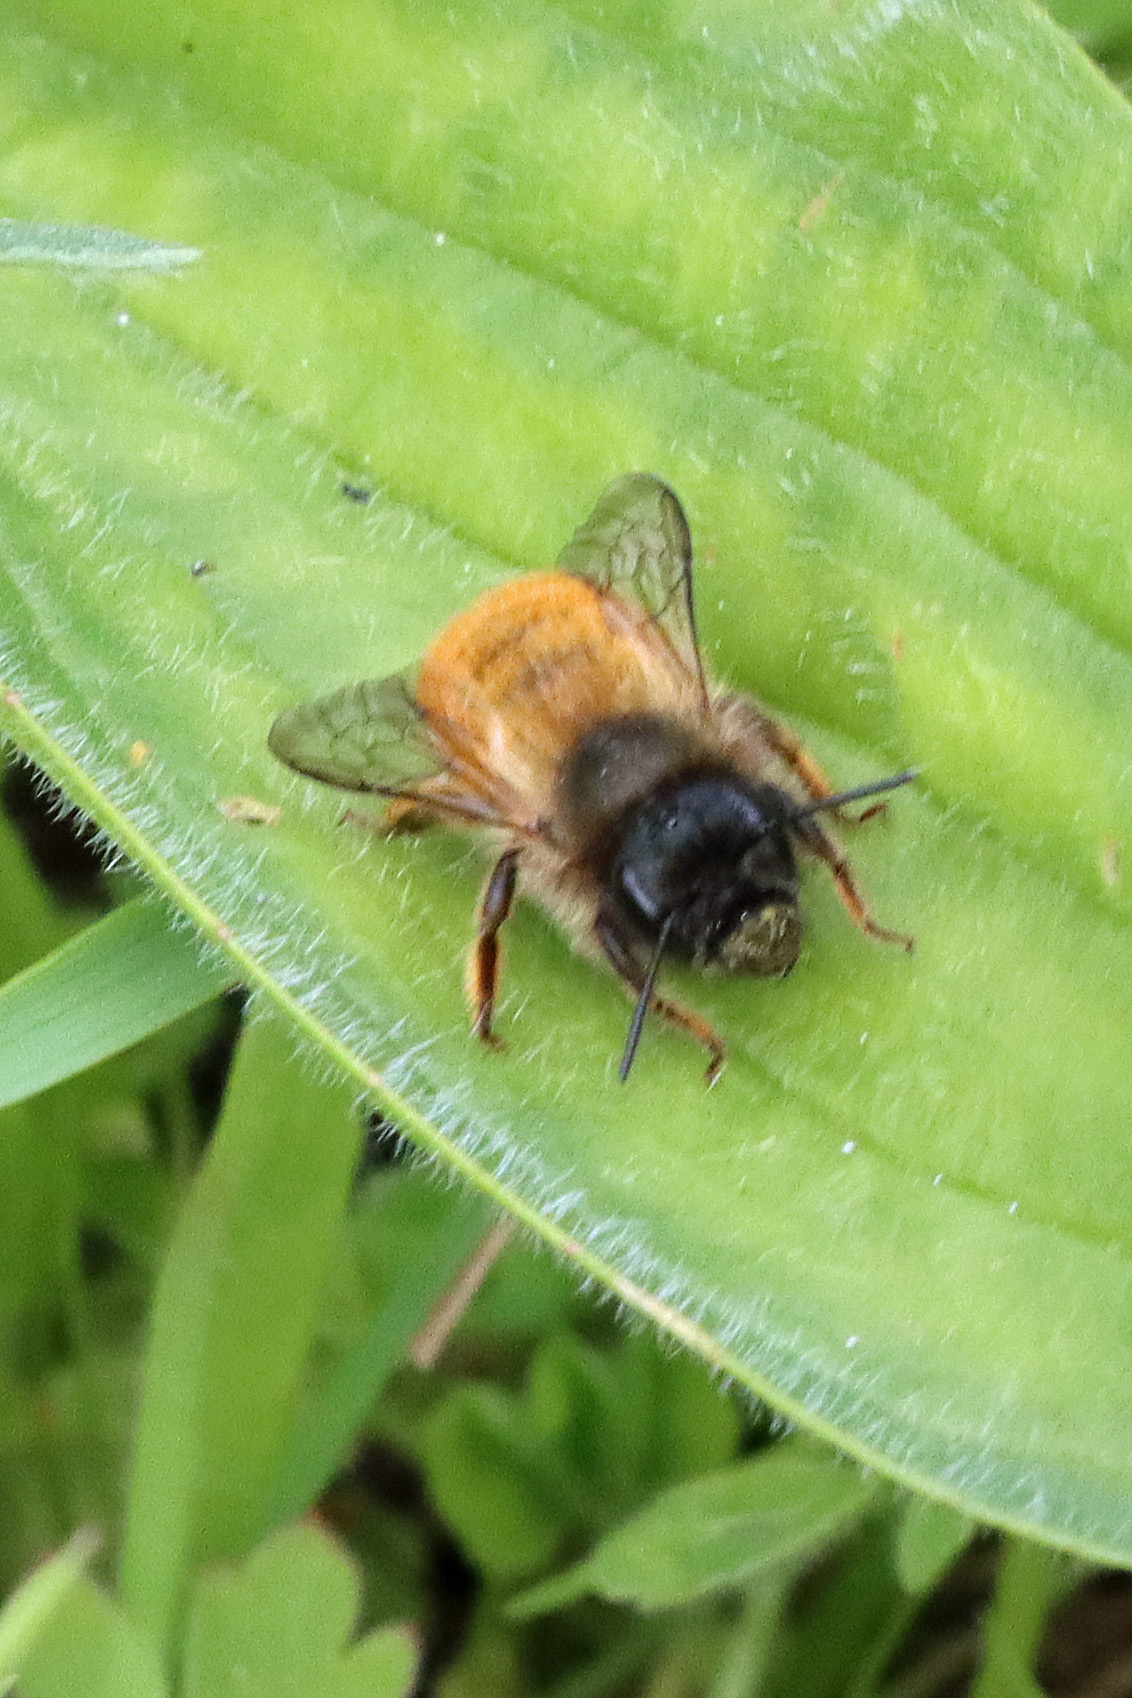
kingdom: Animalia
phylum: Arthropoda
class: Insecta
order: Hymenoptera
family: Megachilidae
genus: Osmia
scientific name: Osmia bicornis
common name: Red mason bee
